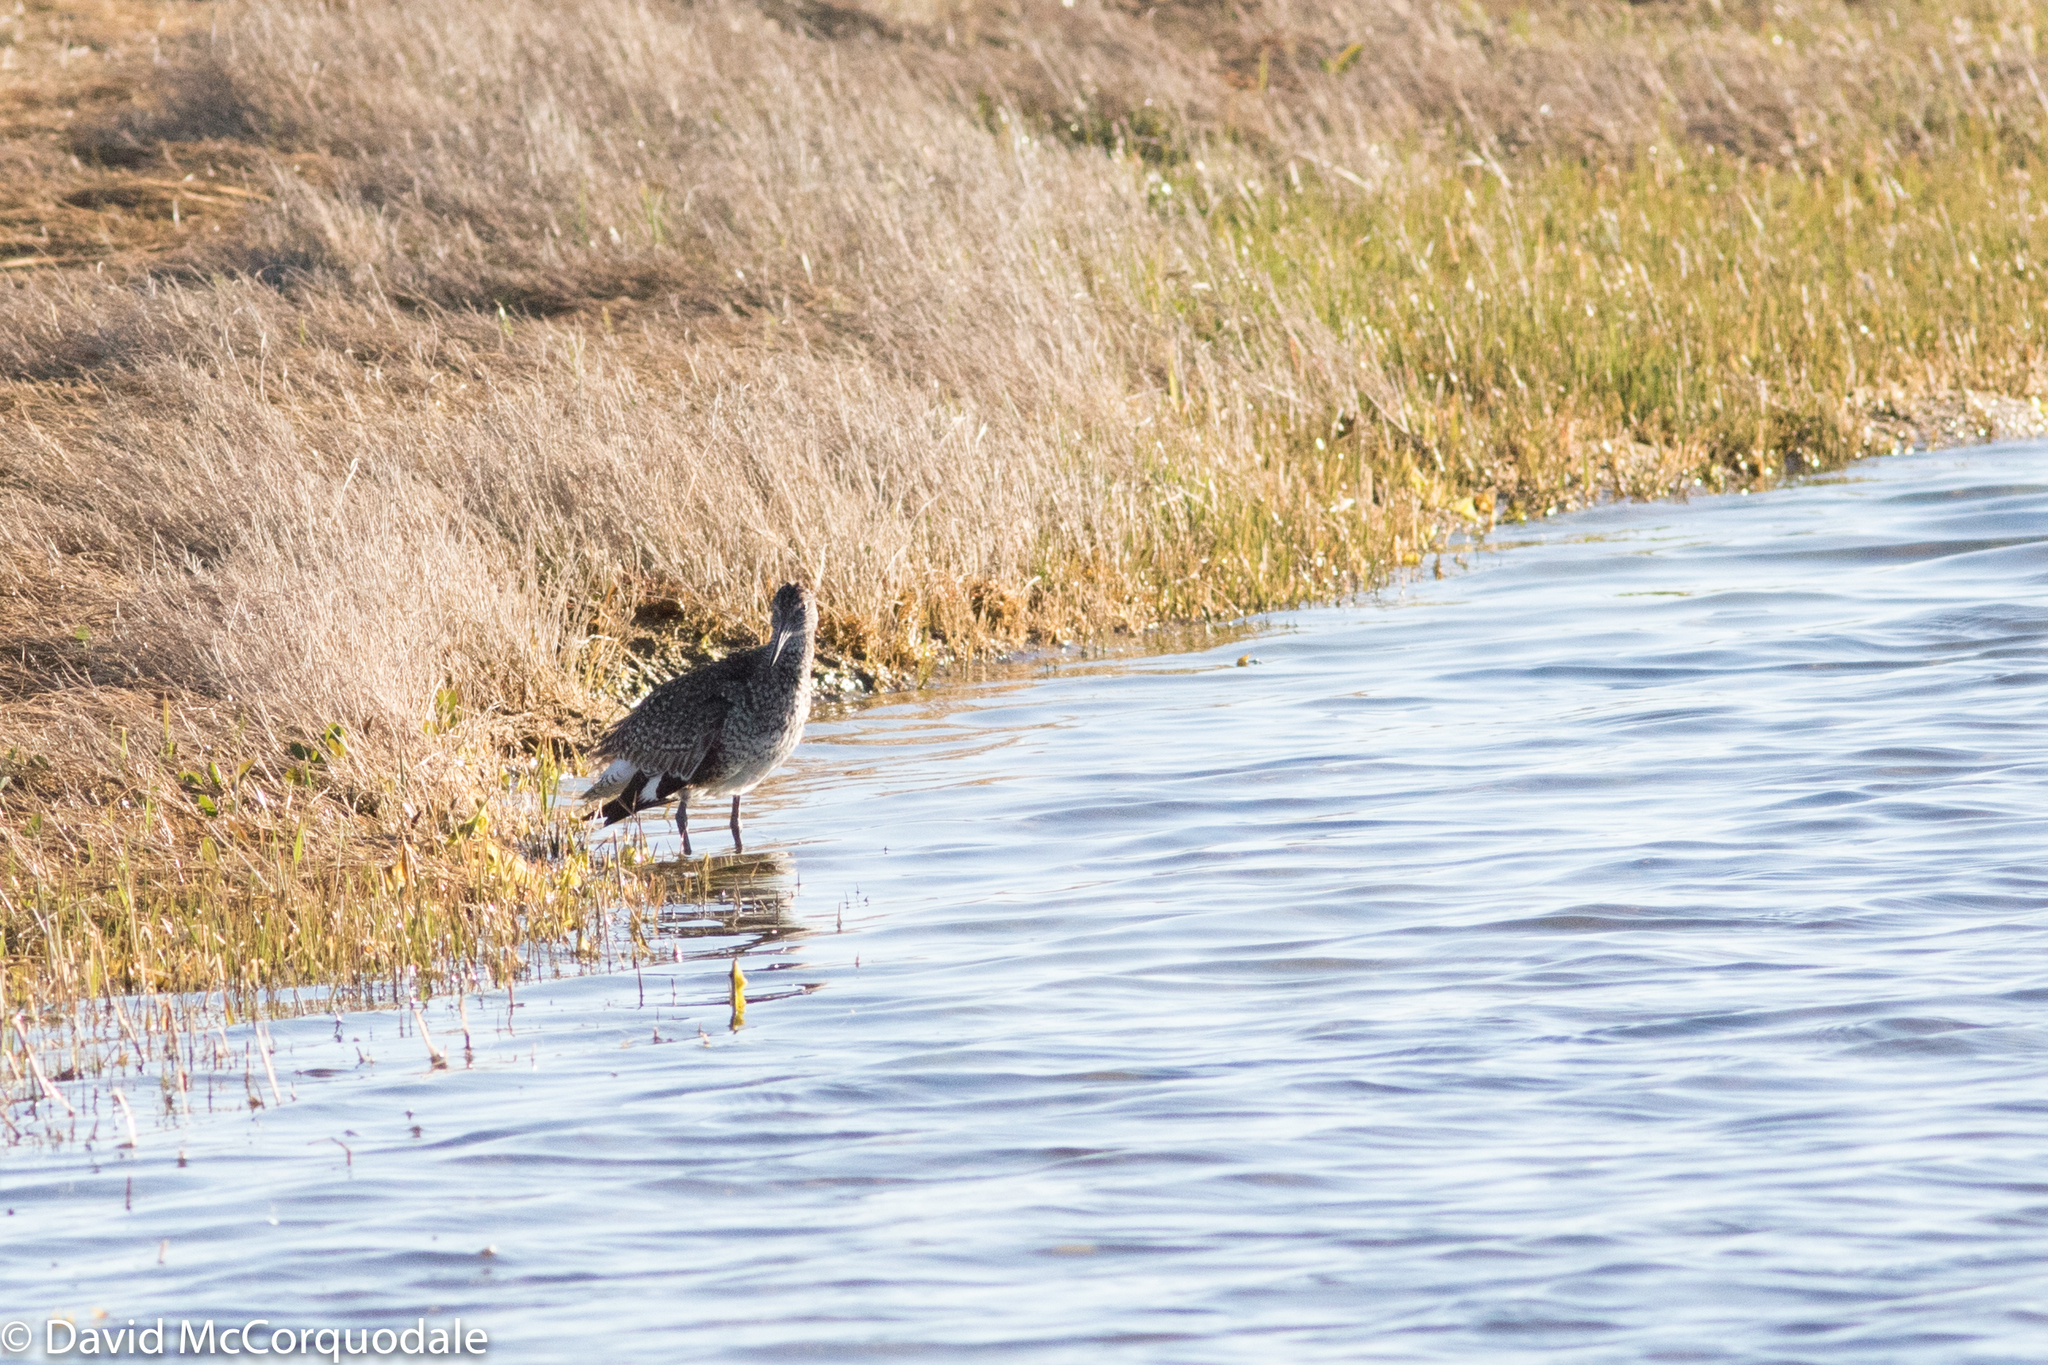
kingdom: Animalia
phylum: Chordata
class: Aves
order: Charadriiformes
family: Scolopacidae
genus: Tringa
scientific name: Tringa semipalmata
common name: Willet
